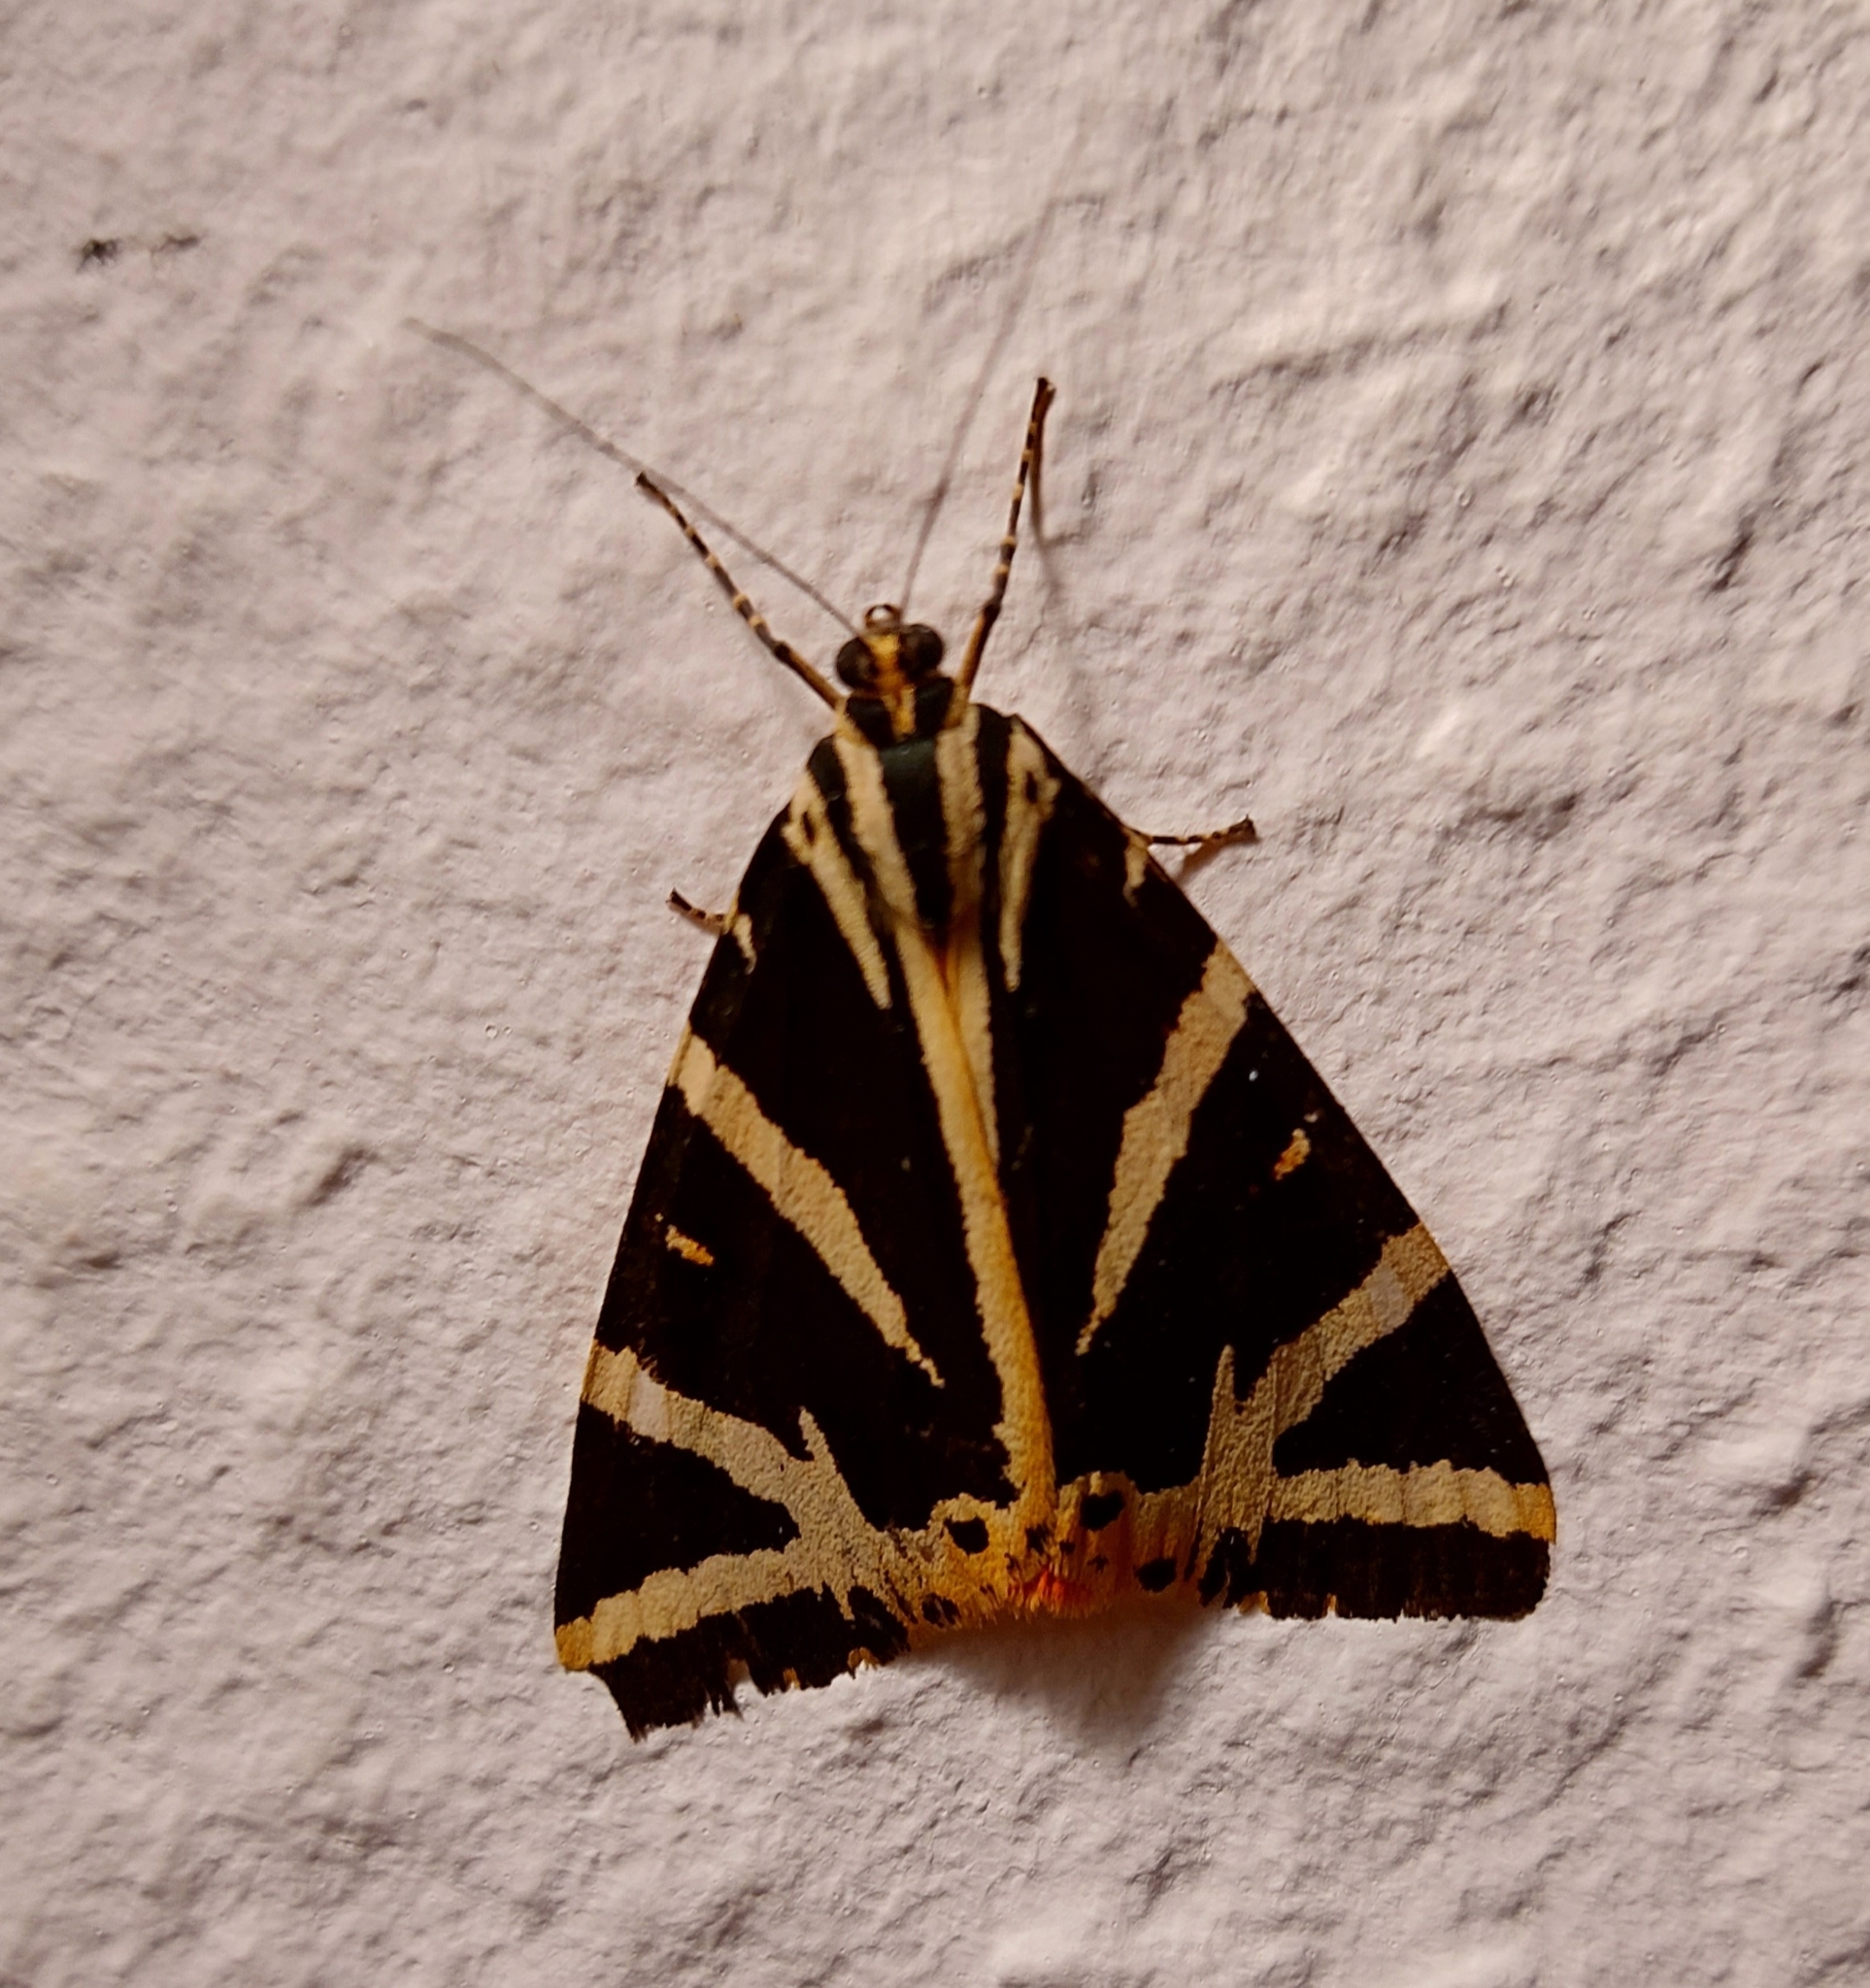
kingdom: Animalia
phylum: Arthropoda
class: Insecta
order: Lepidoptera
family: Erebidae
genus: Euplagia
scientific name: Euplagia quadripunctaria
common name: Jersey tiger
